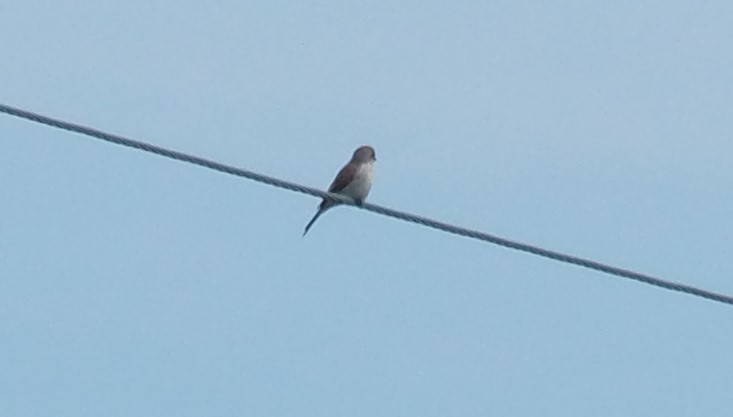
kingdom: Animalia
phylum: Chordata
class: Aves
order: Passeriformes
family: Laniidae
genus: Lanius
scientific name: Lanius collurio
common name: Red-backed shrike
